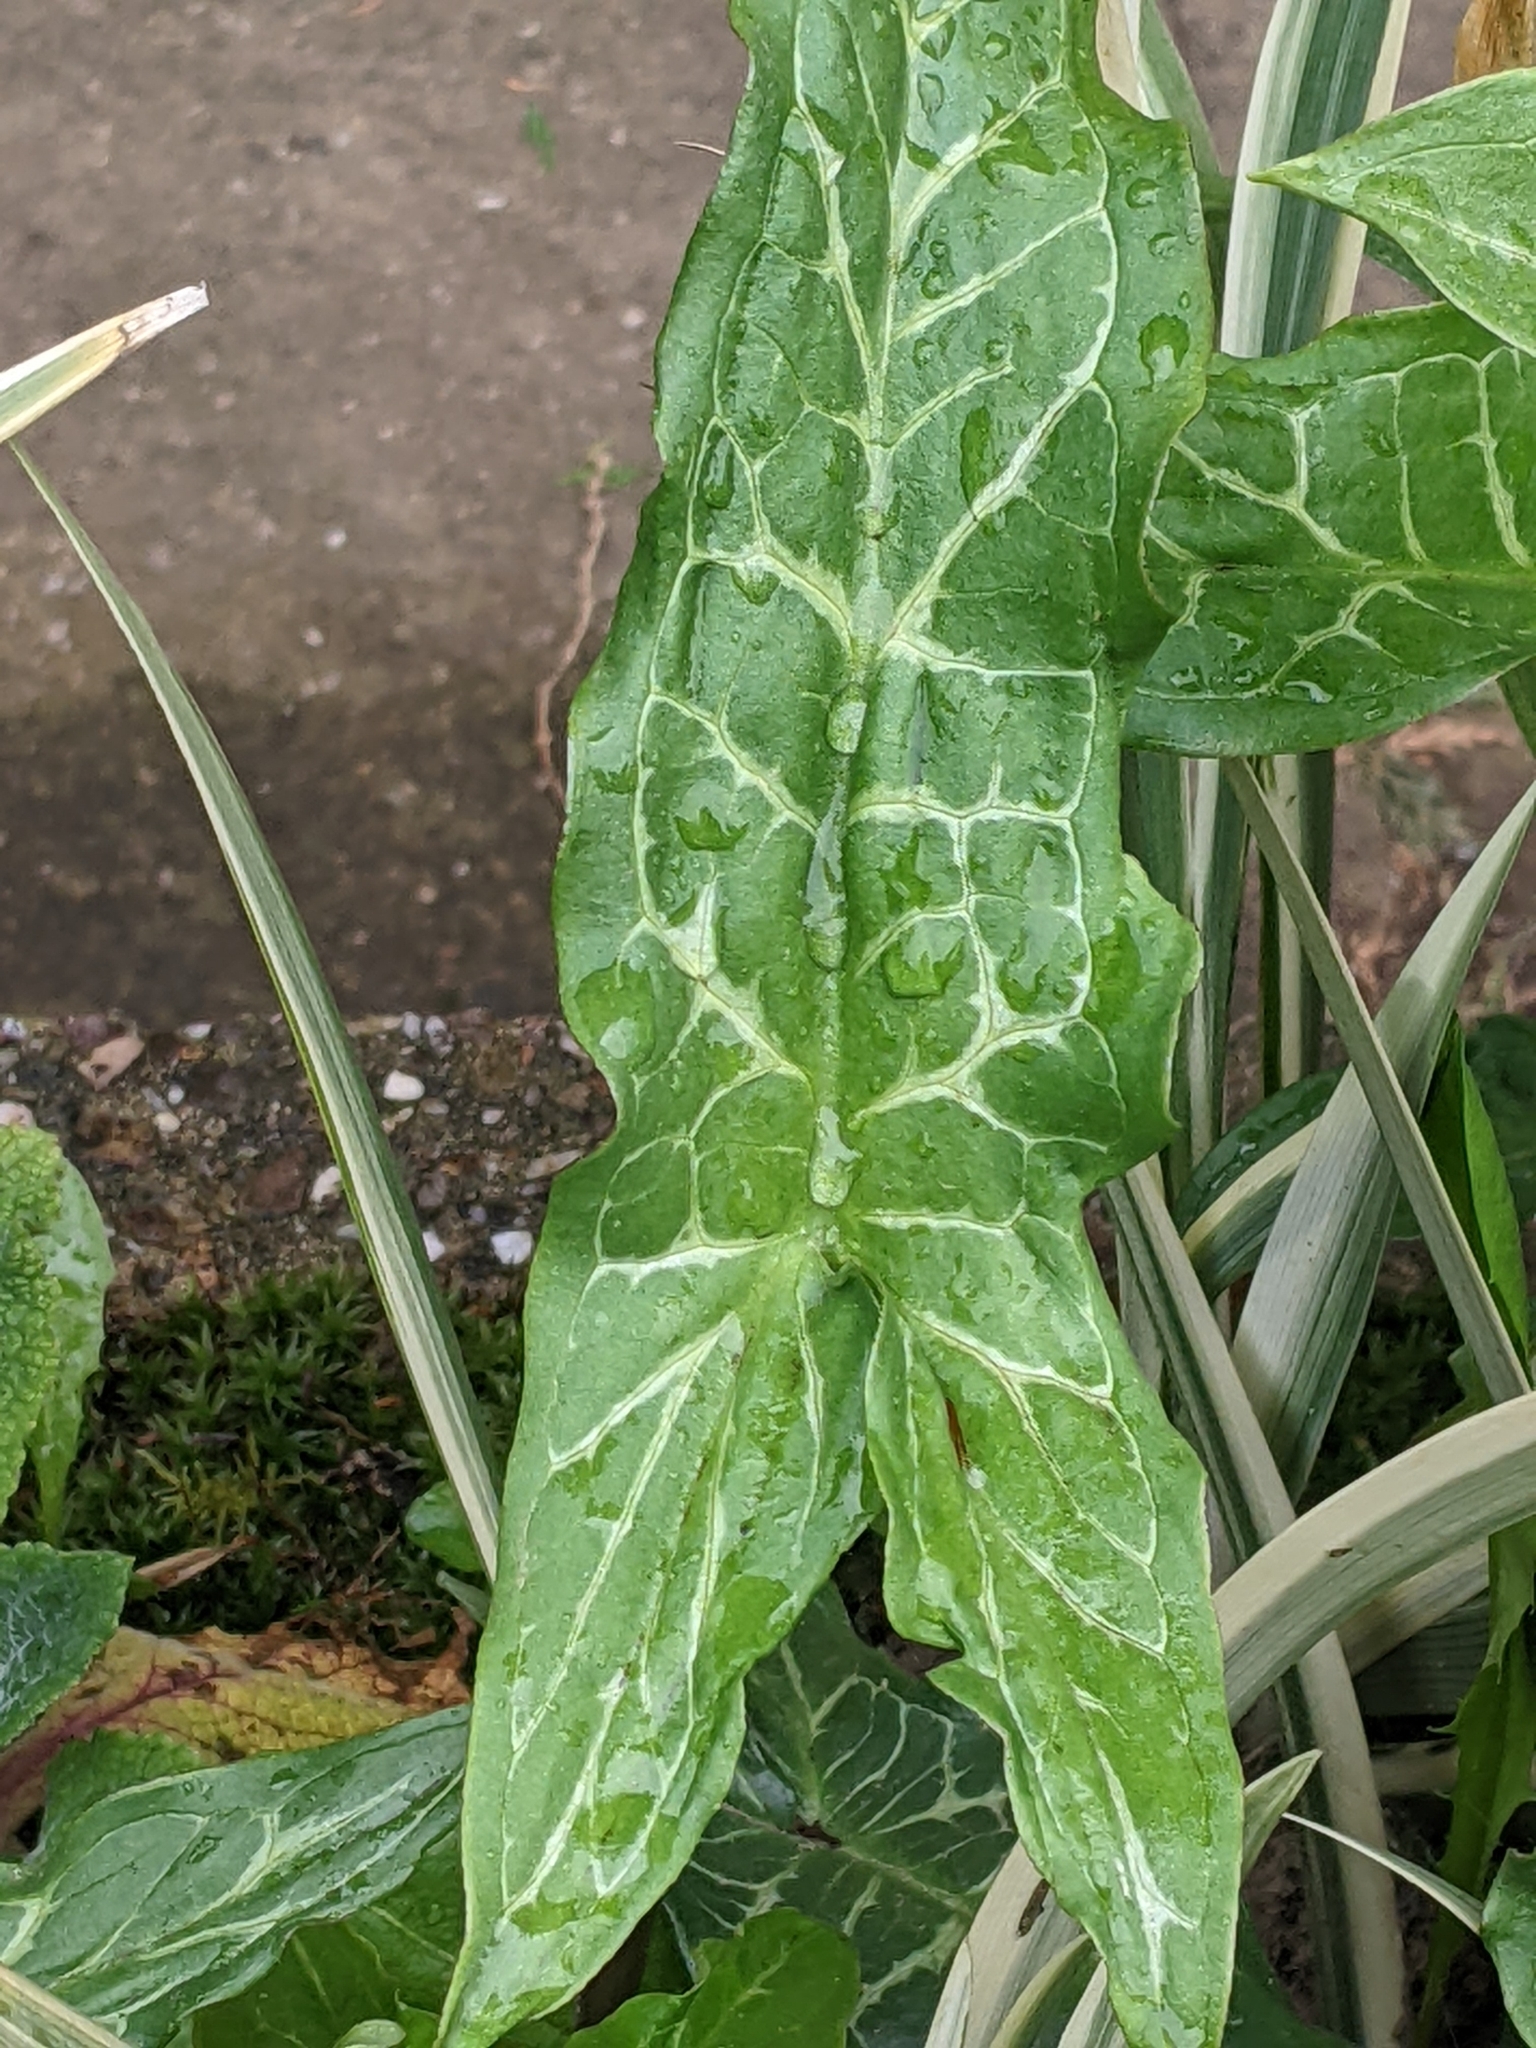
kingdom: Plantae
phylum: Tracheophyta
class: Liliopsida
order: Alismatales
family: Araceae
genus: Arum
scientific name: Arum italicum
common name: Italian lords-and-ladies
